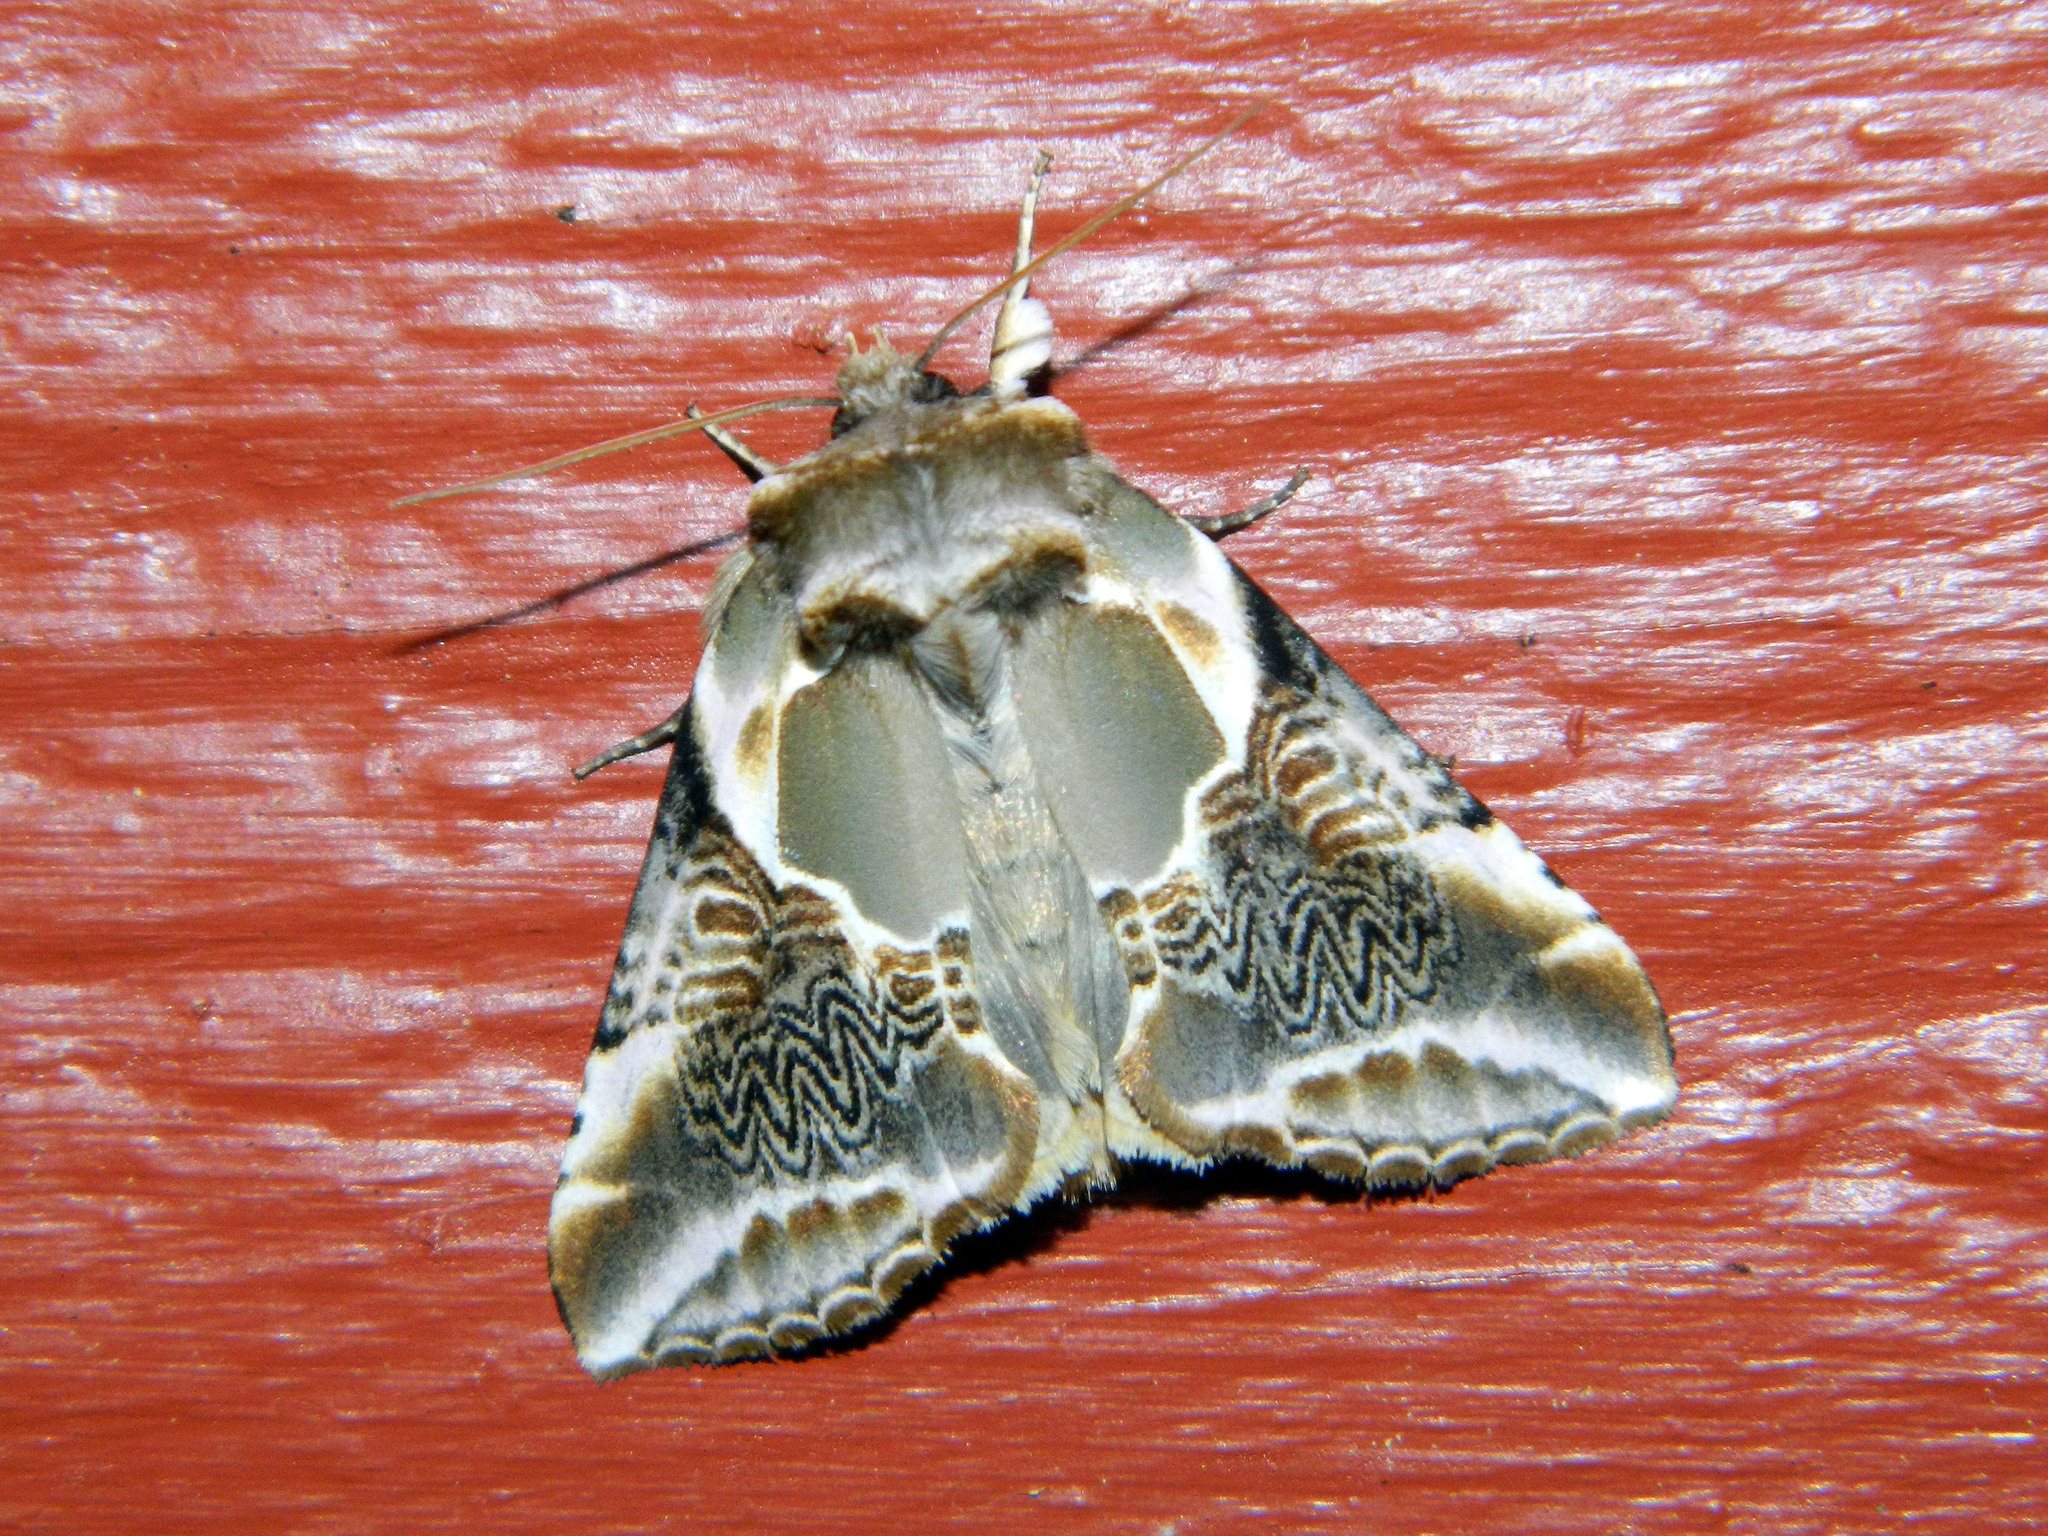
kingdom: Animalia
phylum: Arthropoda
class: Insecta
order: Lepidoptera
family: Drepanidae
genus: Habrosyne
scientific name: Habrosyne scripta
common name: Lettered habrosyne moth
